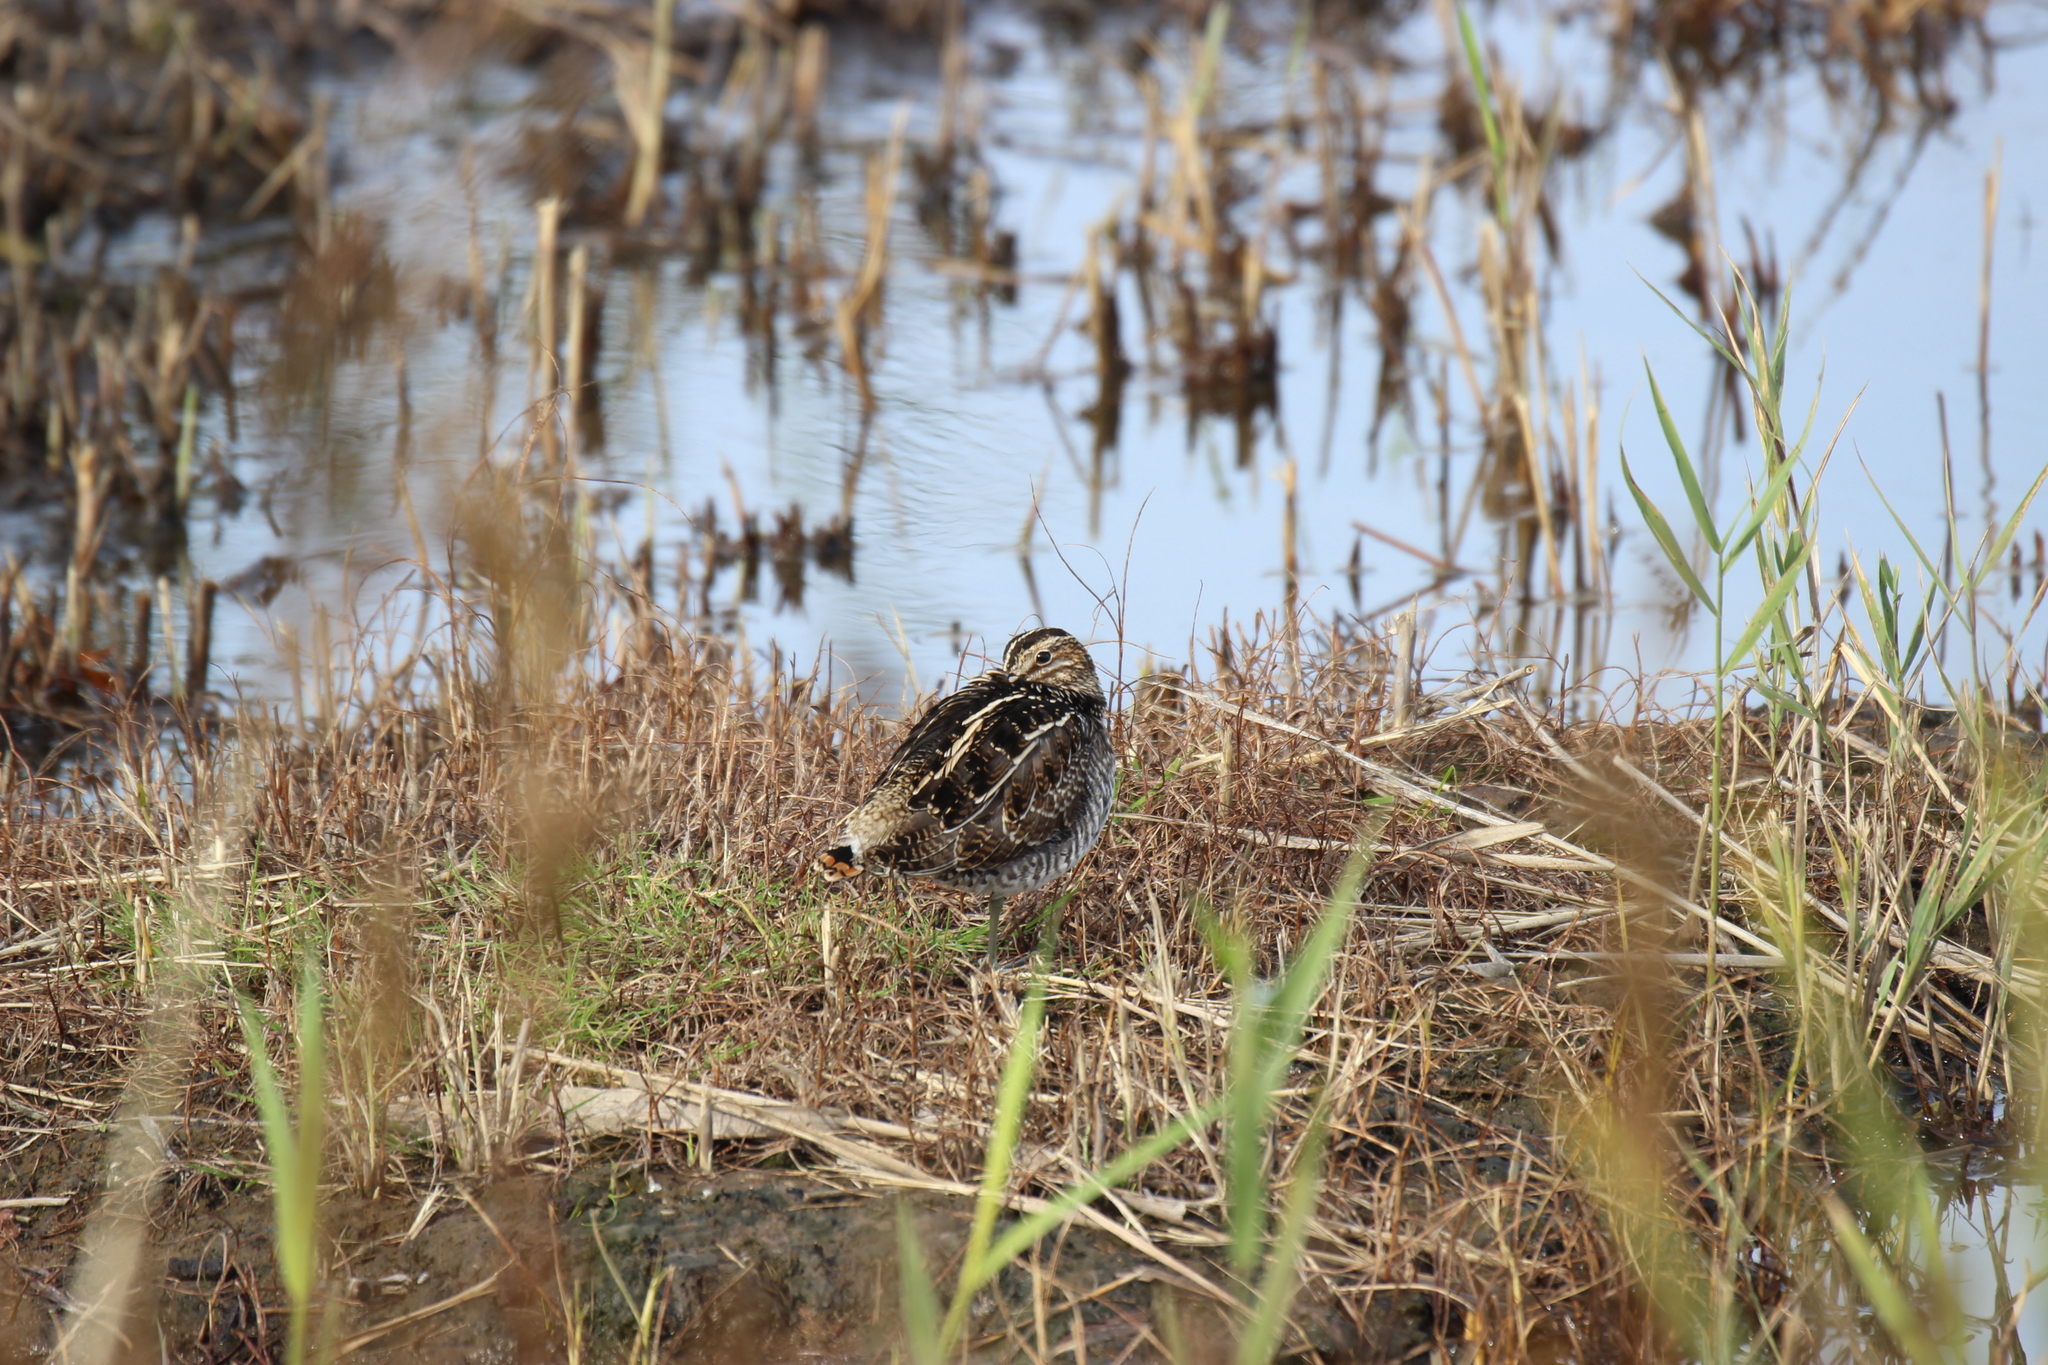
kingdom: Animalia
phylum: Chordata
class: Aves
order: Charadriiformes
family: Scolopacidae
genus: Gallinago
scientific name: Gallinago gallinago
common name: Common snipe
